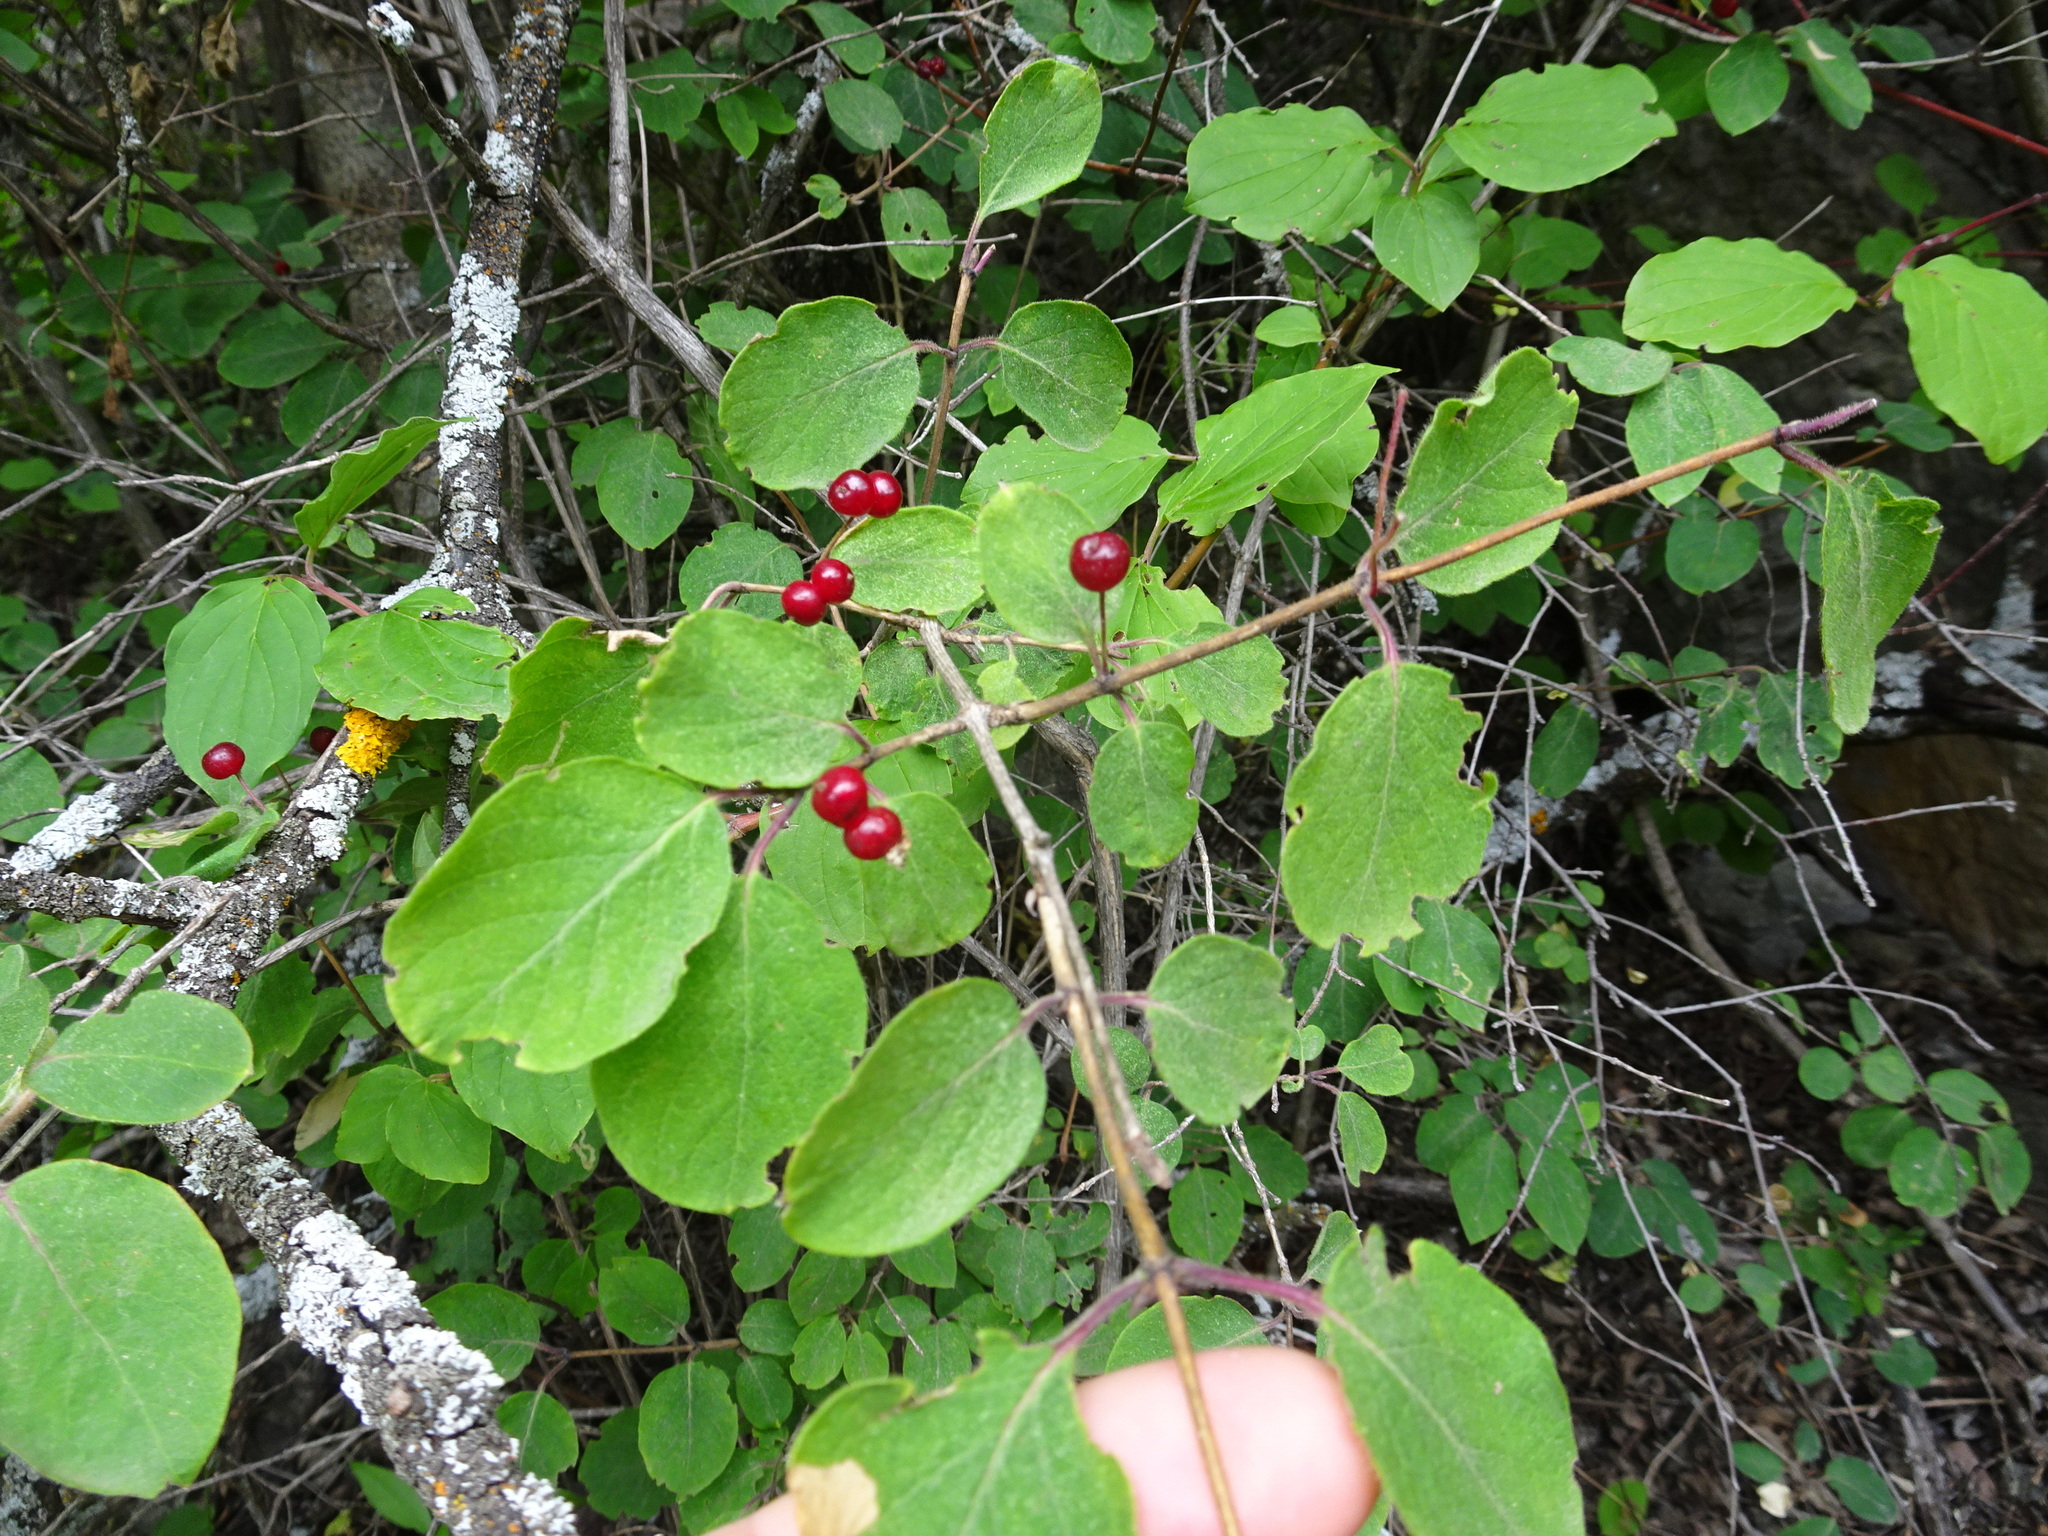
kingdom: Plantae
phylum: Tracheophyta
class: Magnoliopsida
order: Dipsacales
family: Caprifoliaceae
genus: Lonicera
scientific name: Lonicera xylosteum
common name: Fly honeysuckle
